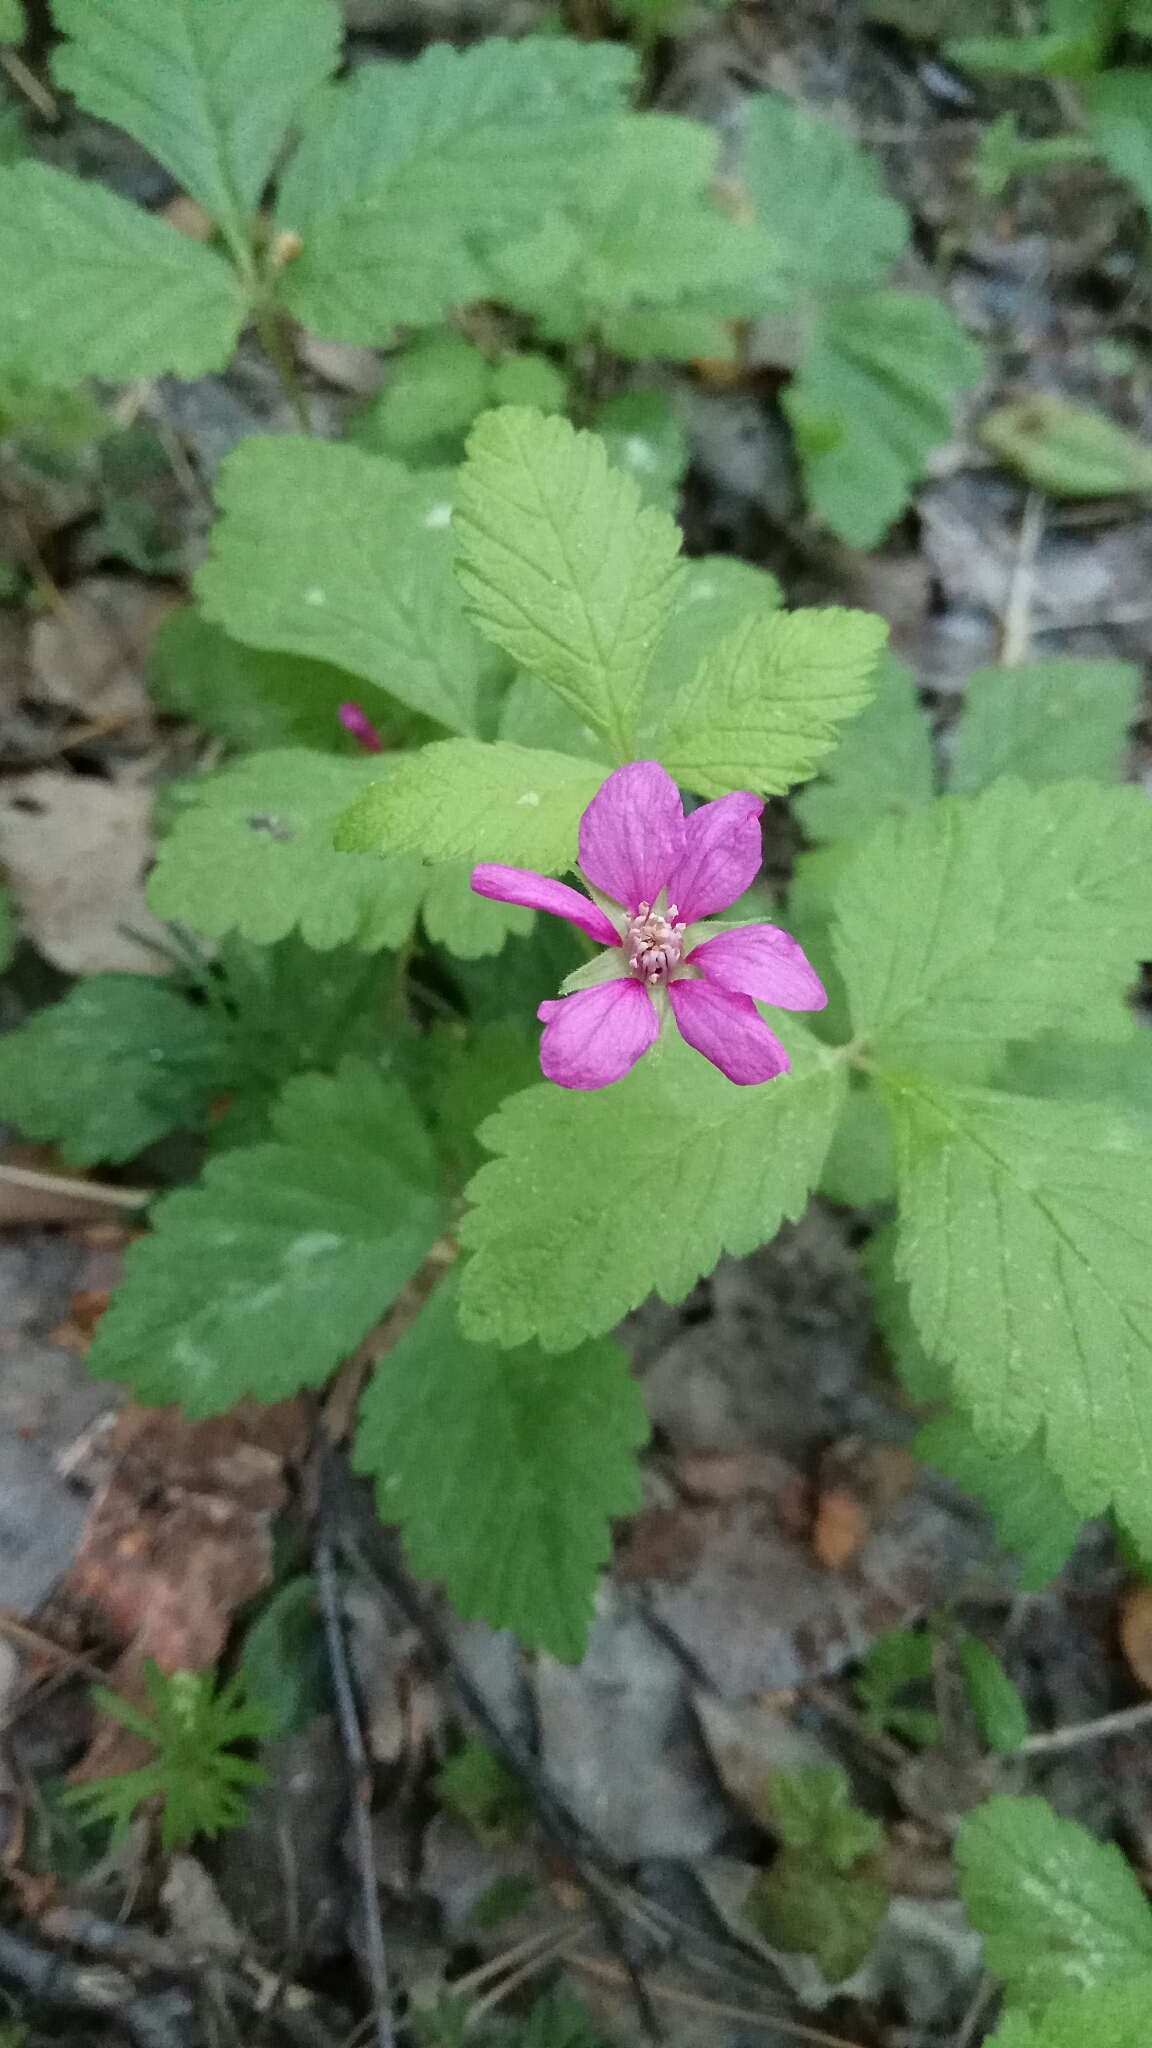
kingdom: Plantae
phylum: Tracheophyta
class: Magnoliopsida
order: Rosales
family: Rosaceae
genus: Rubus
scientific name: Rubus arcticus
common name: Arctic bramble
